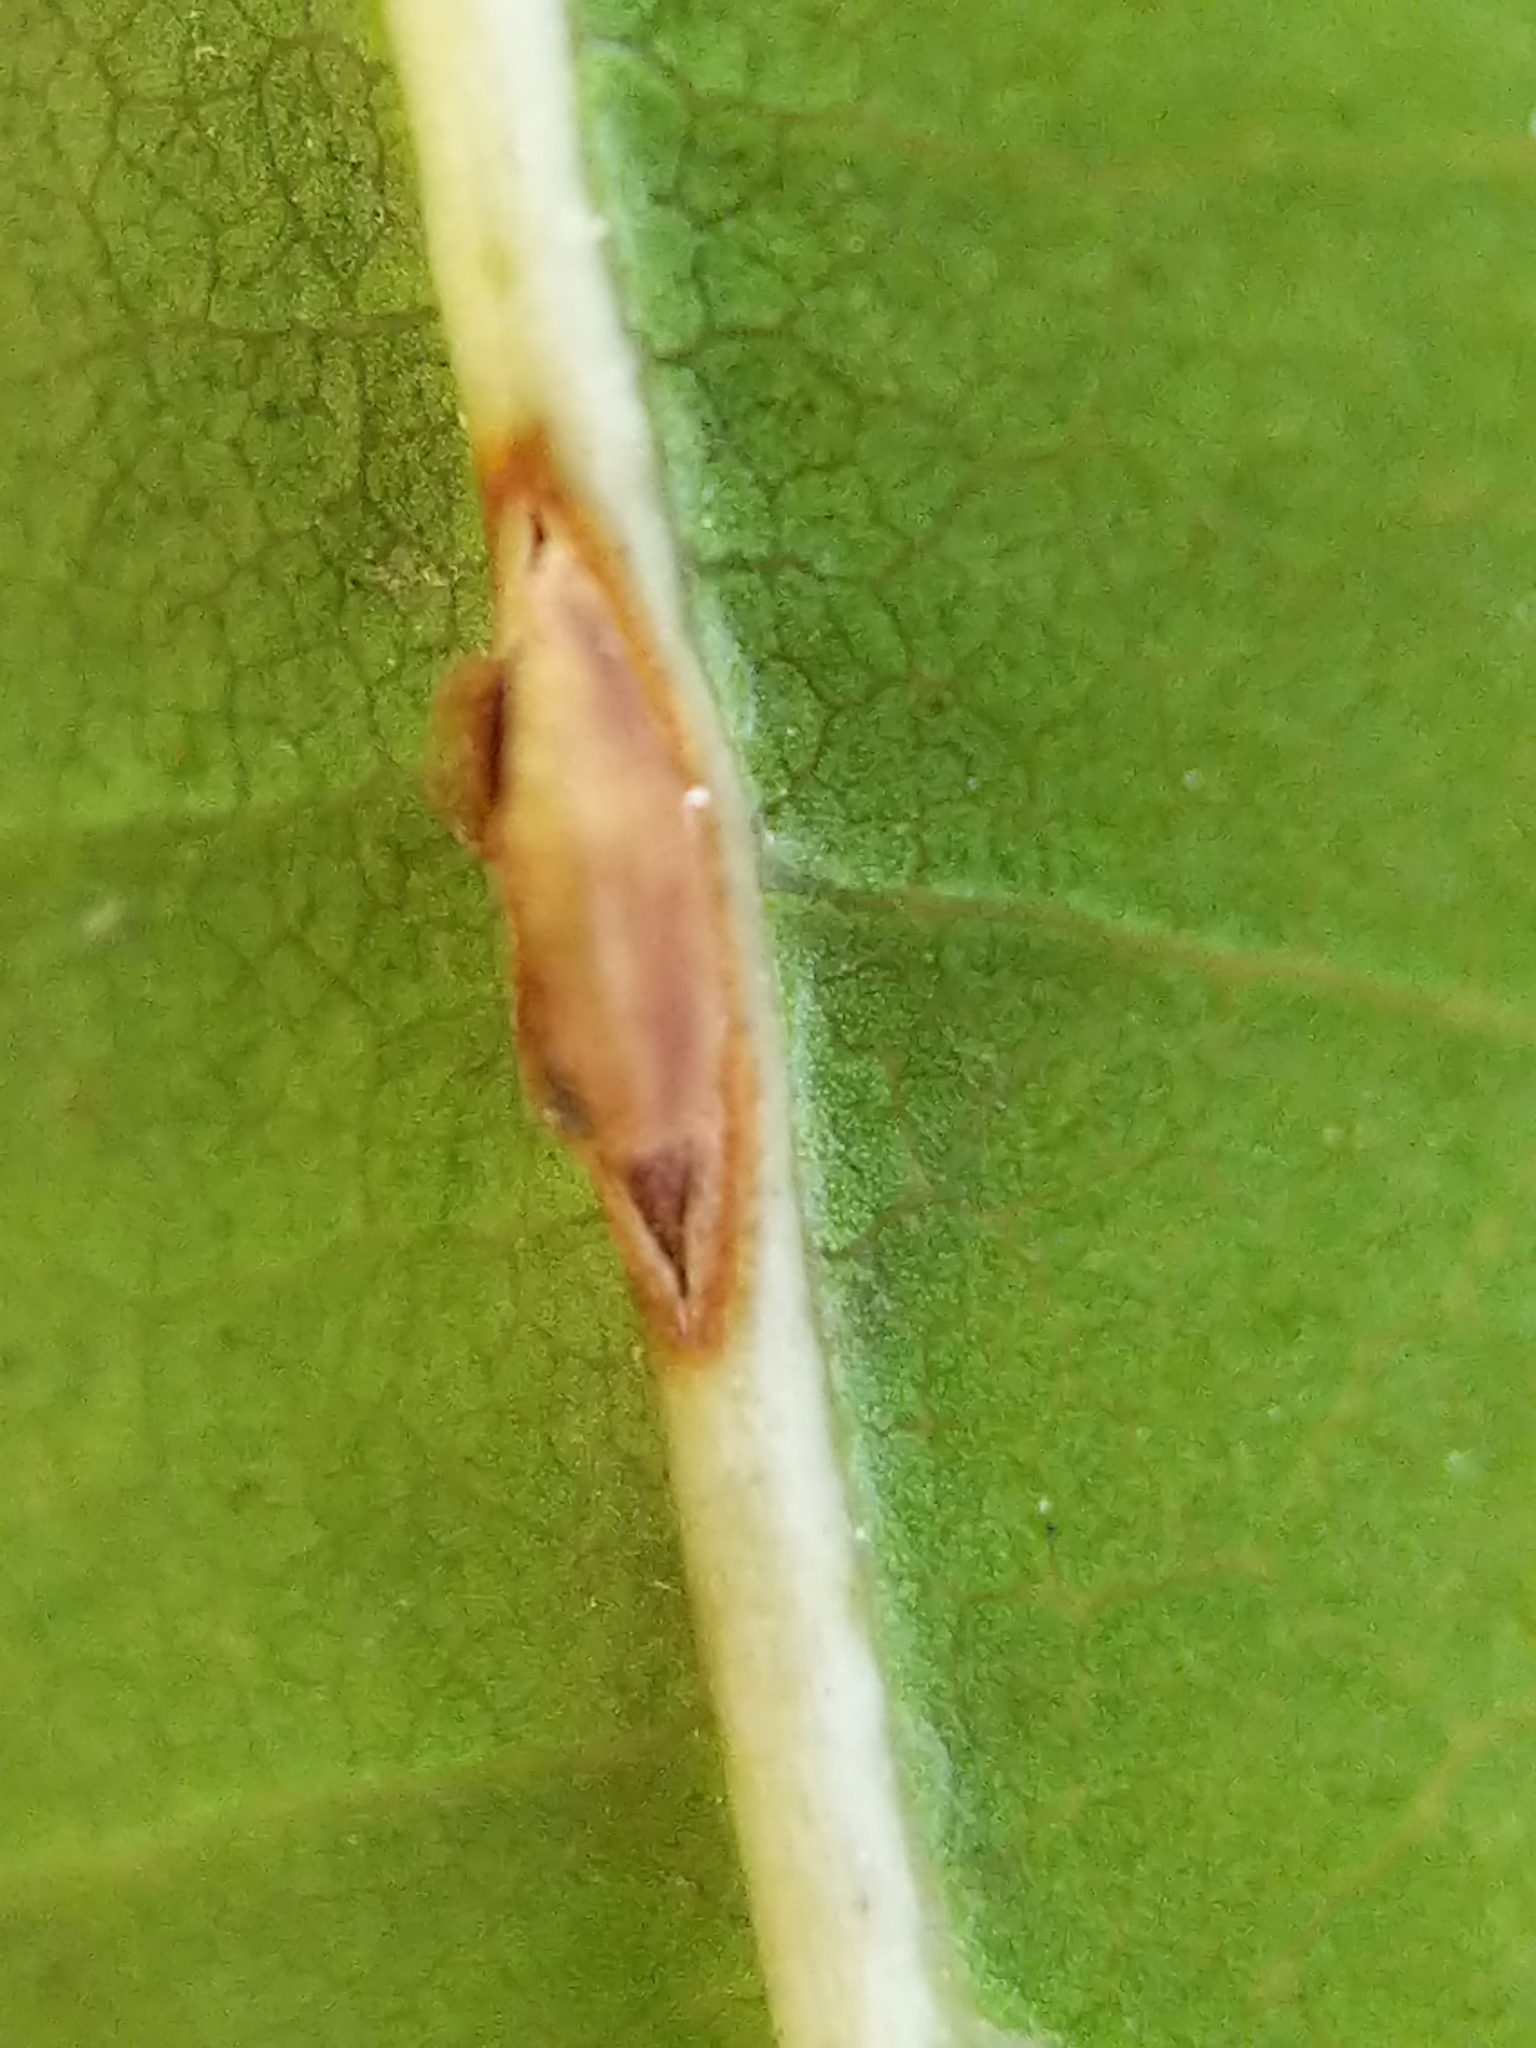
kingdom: Animalia
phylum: Arthropoda
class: Insecta
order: Hymenoptera
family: Cynipidae
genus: Kokkocynips
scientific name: Kokkocynips rileyi
